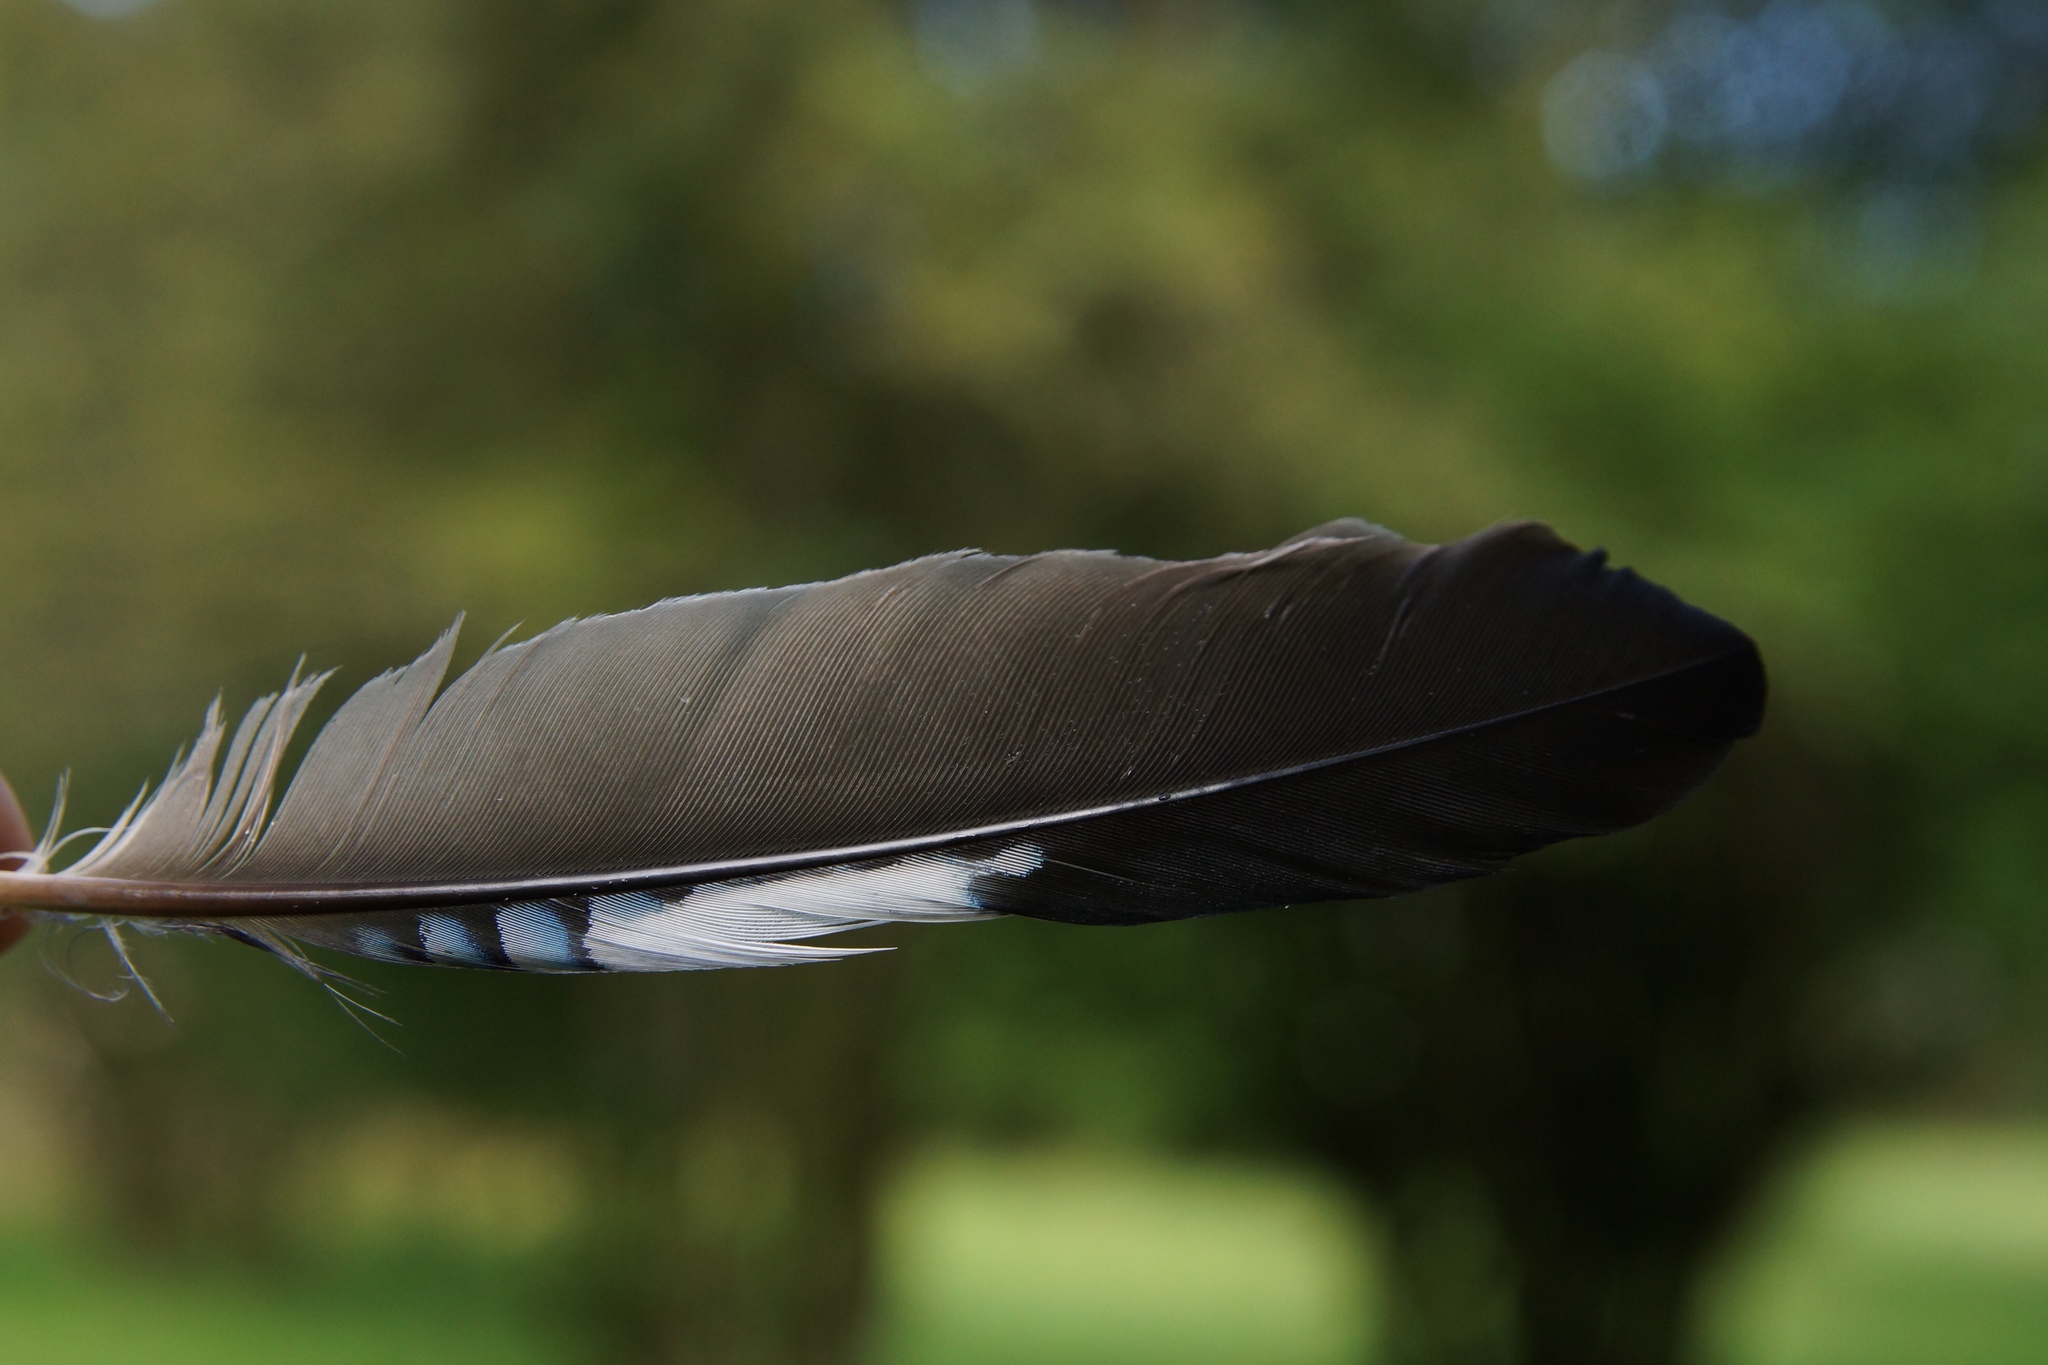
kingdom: Animalia
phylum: Chordata
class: Aves
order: Passeriformes
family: Corvidae
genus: Garrulus
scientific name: Garrulus glandarius
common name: Eurasian jay
